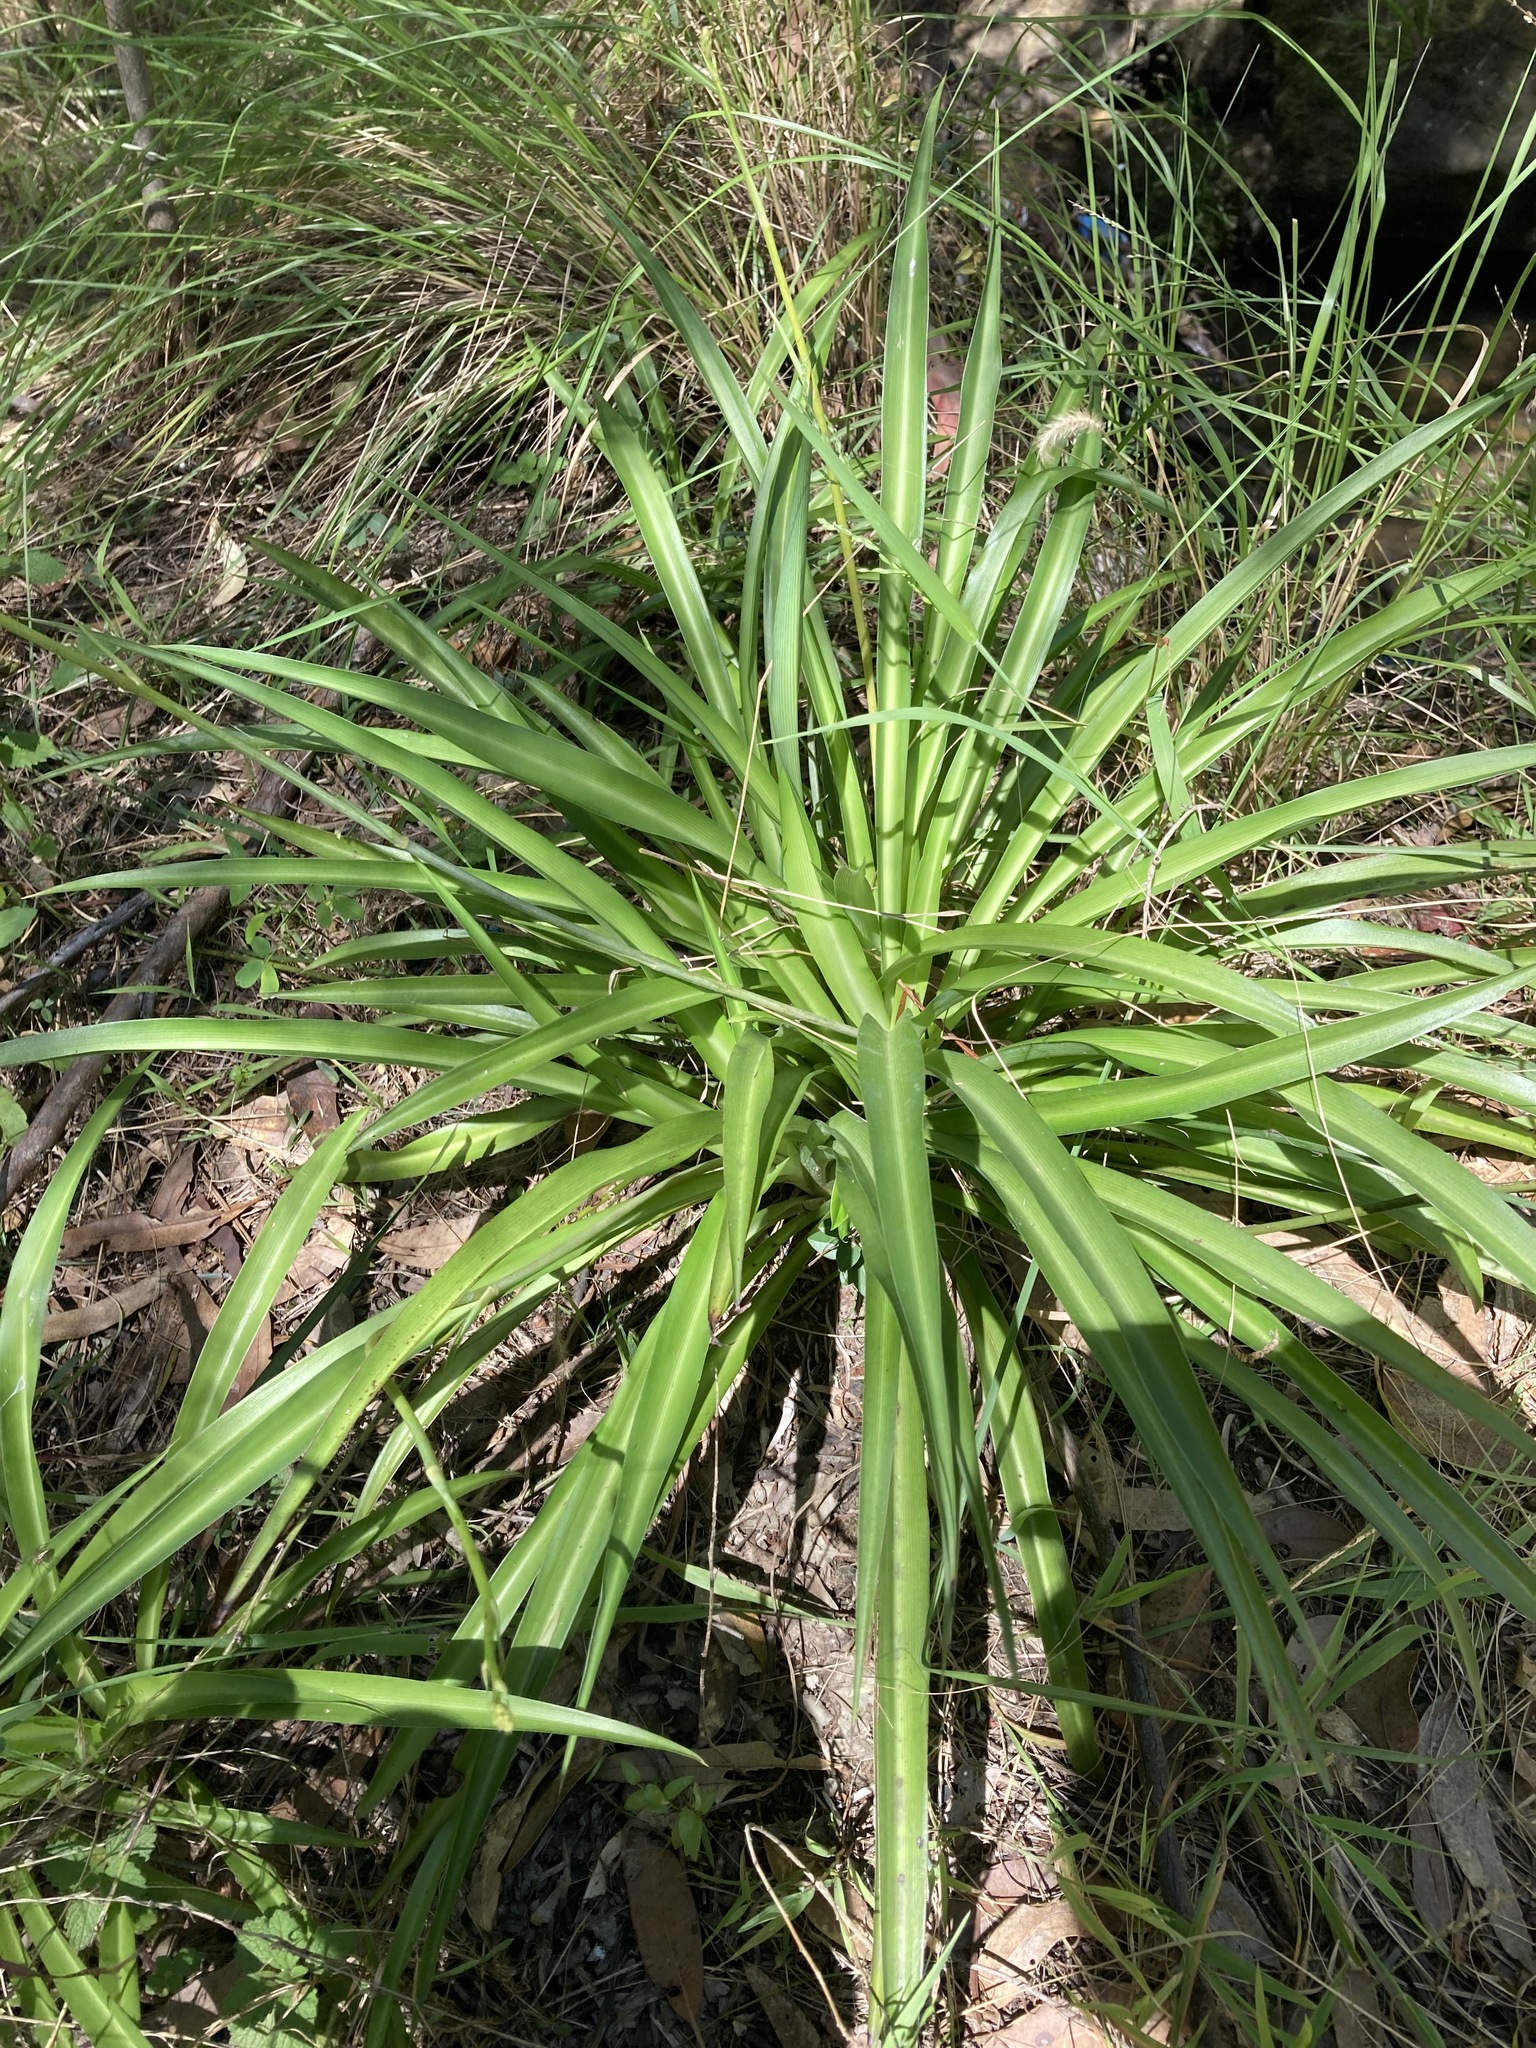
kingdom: Plantae
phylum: Tracheophyta
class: Liliopsida
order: Asparagales
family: Asparagaceae
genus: Chlorophytum
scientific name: Chlorophytum comosum
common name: Spider plant
